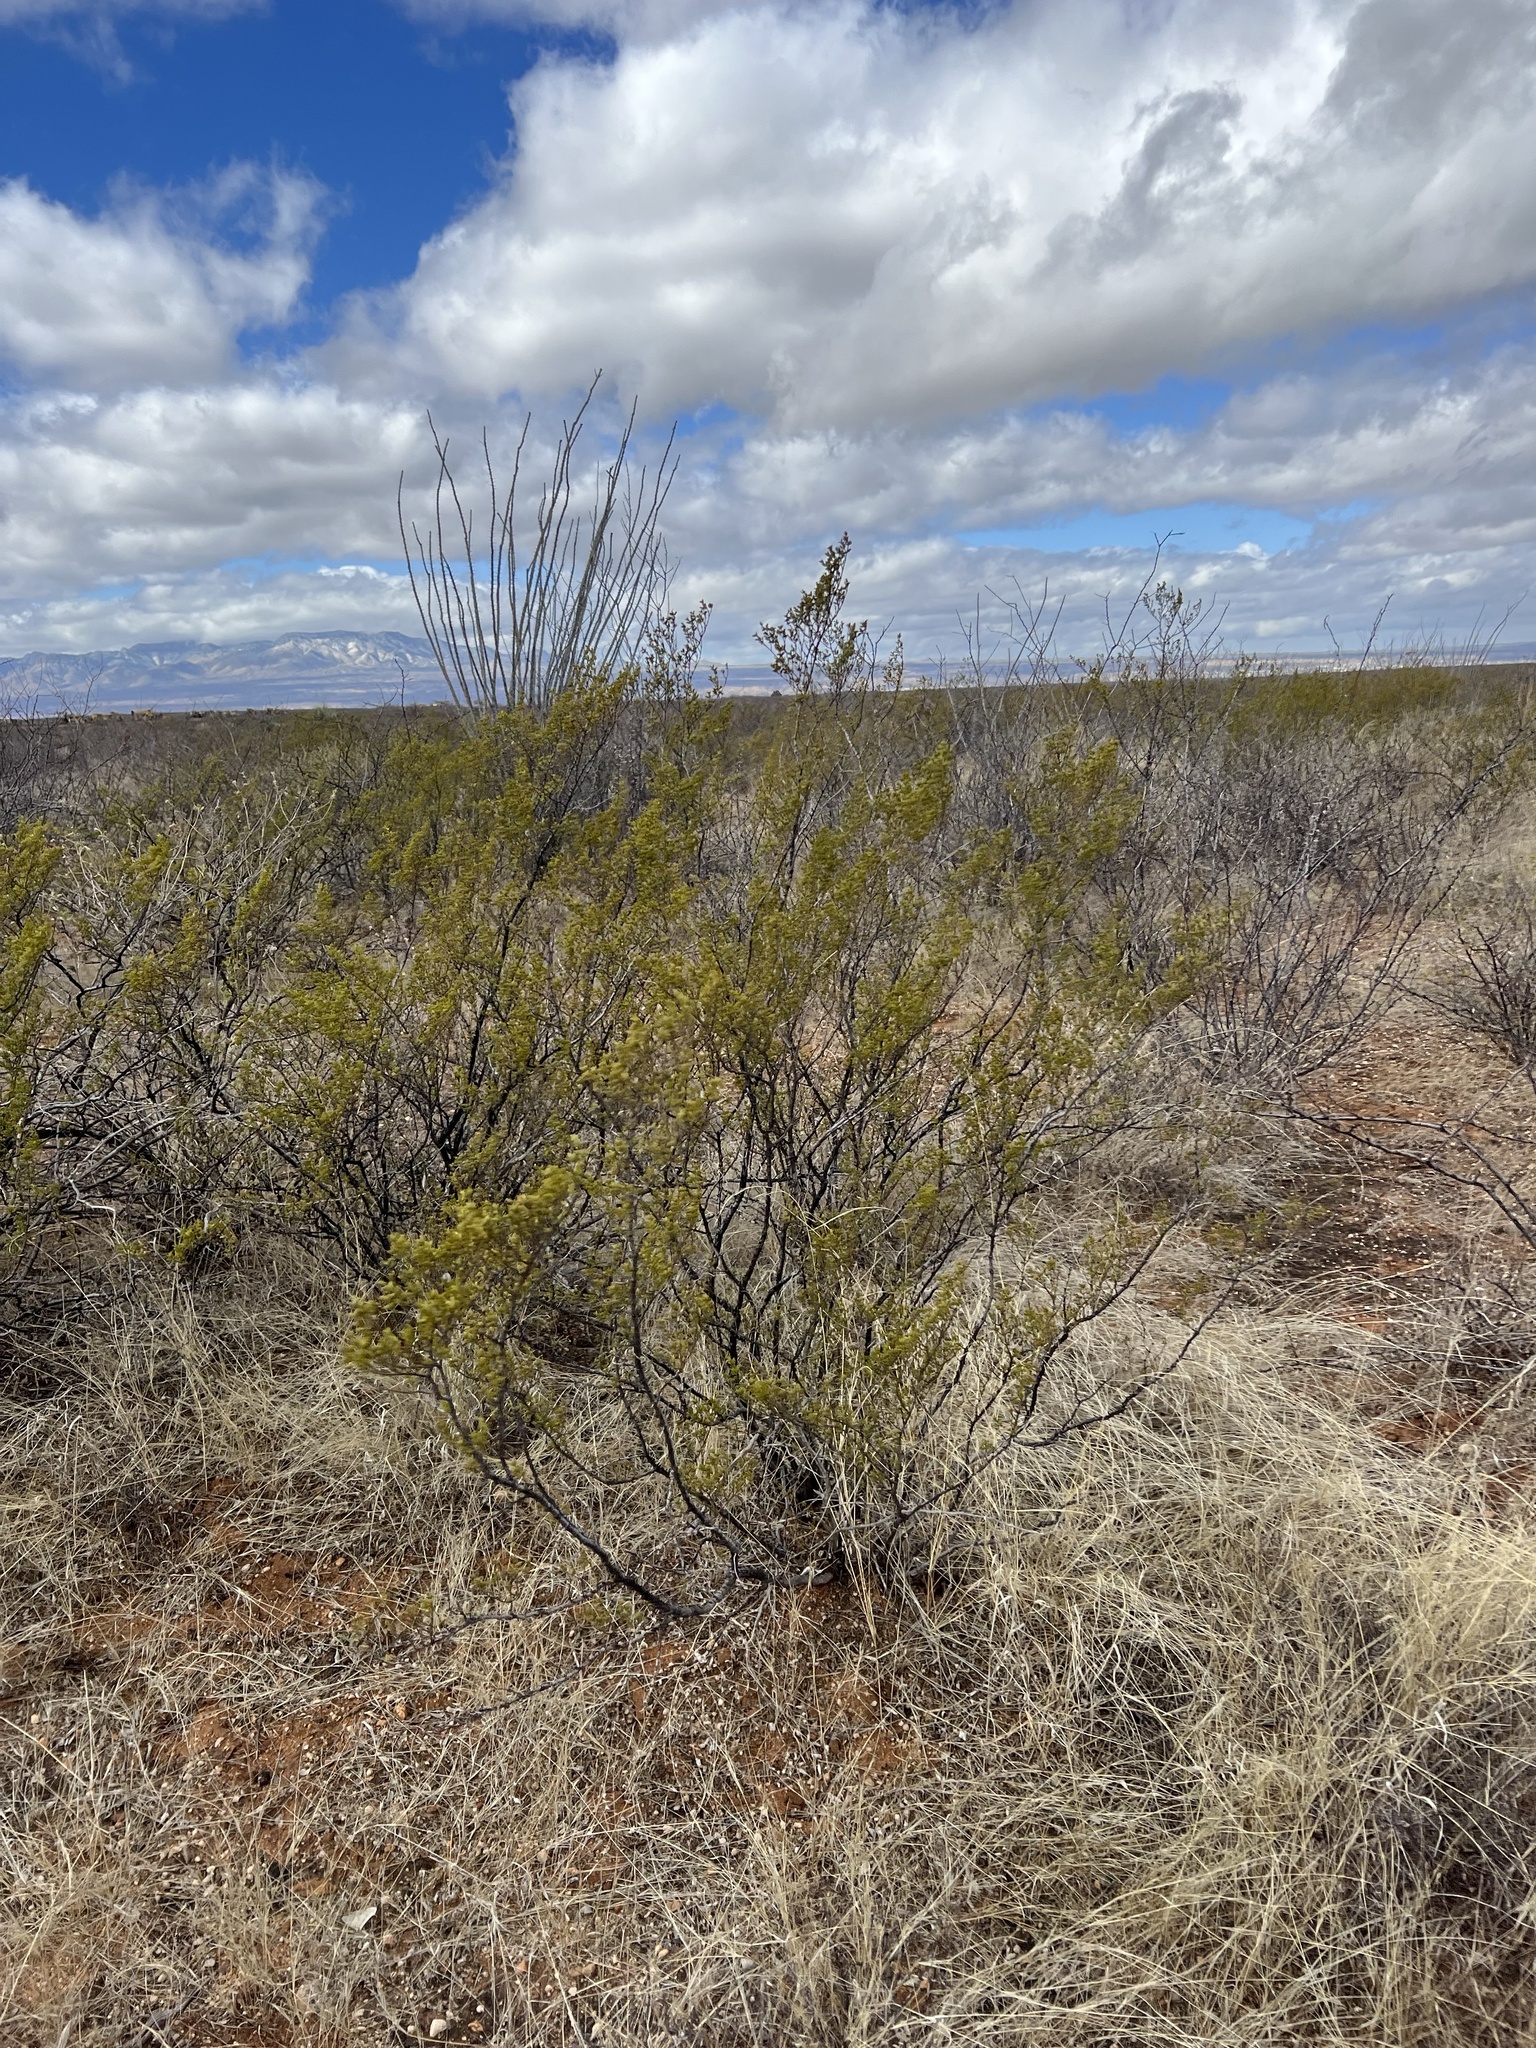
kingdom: Plantae
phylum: Tracheophyta
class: Magnoliopsida
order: Zygophyllales
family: Zygophyllaceae
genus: Larrea
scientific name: Larrea tridentata
